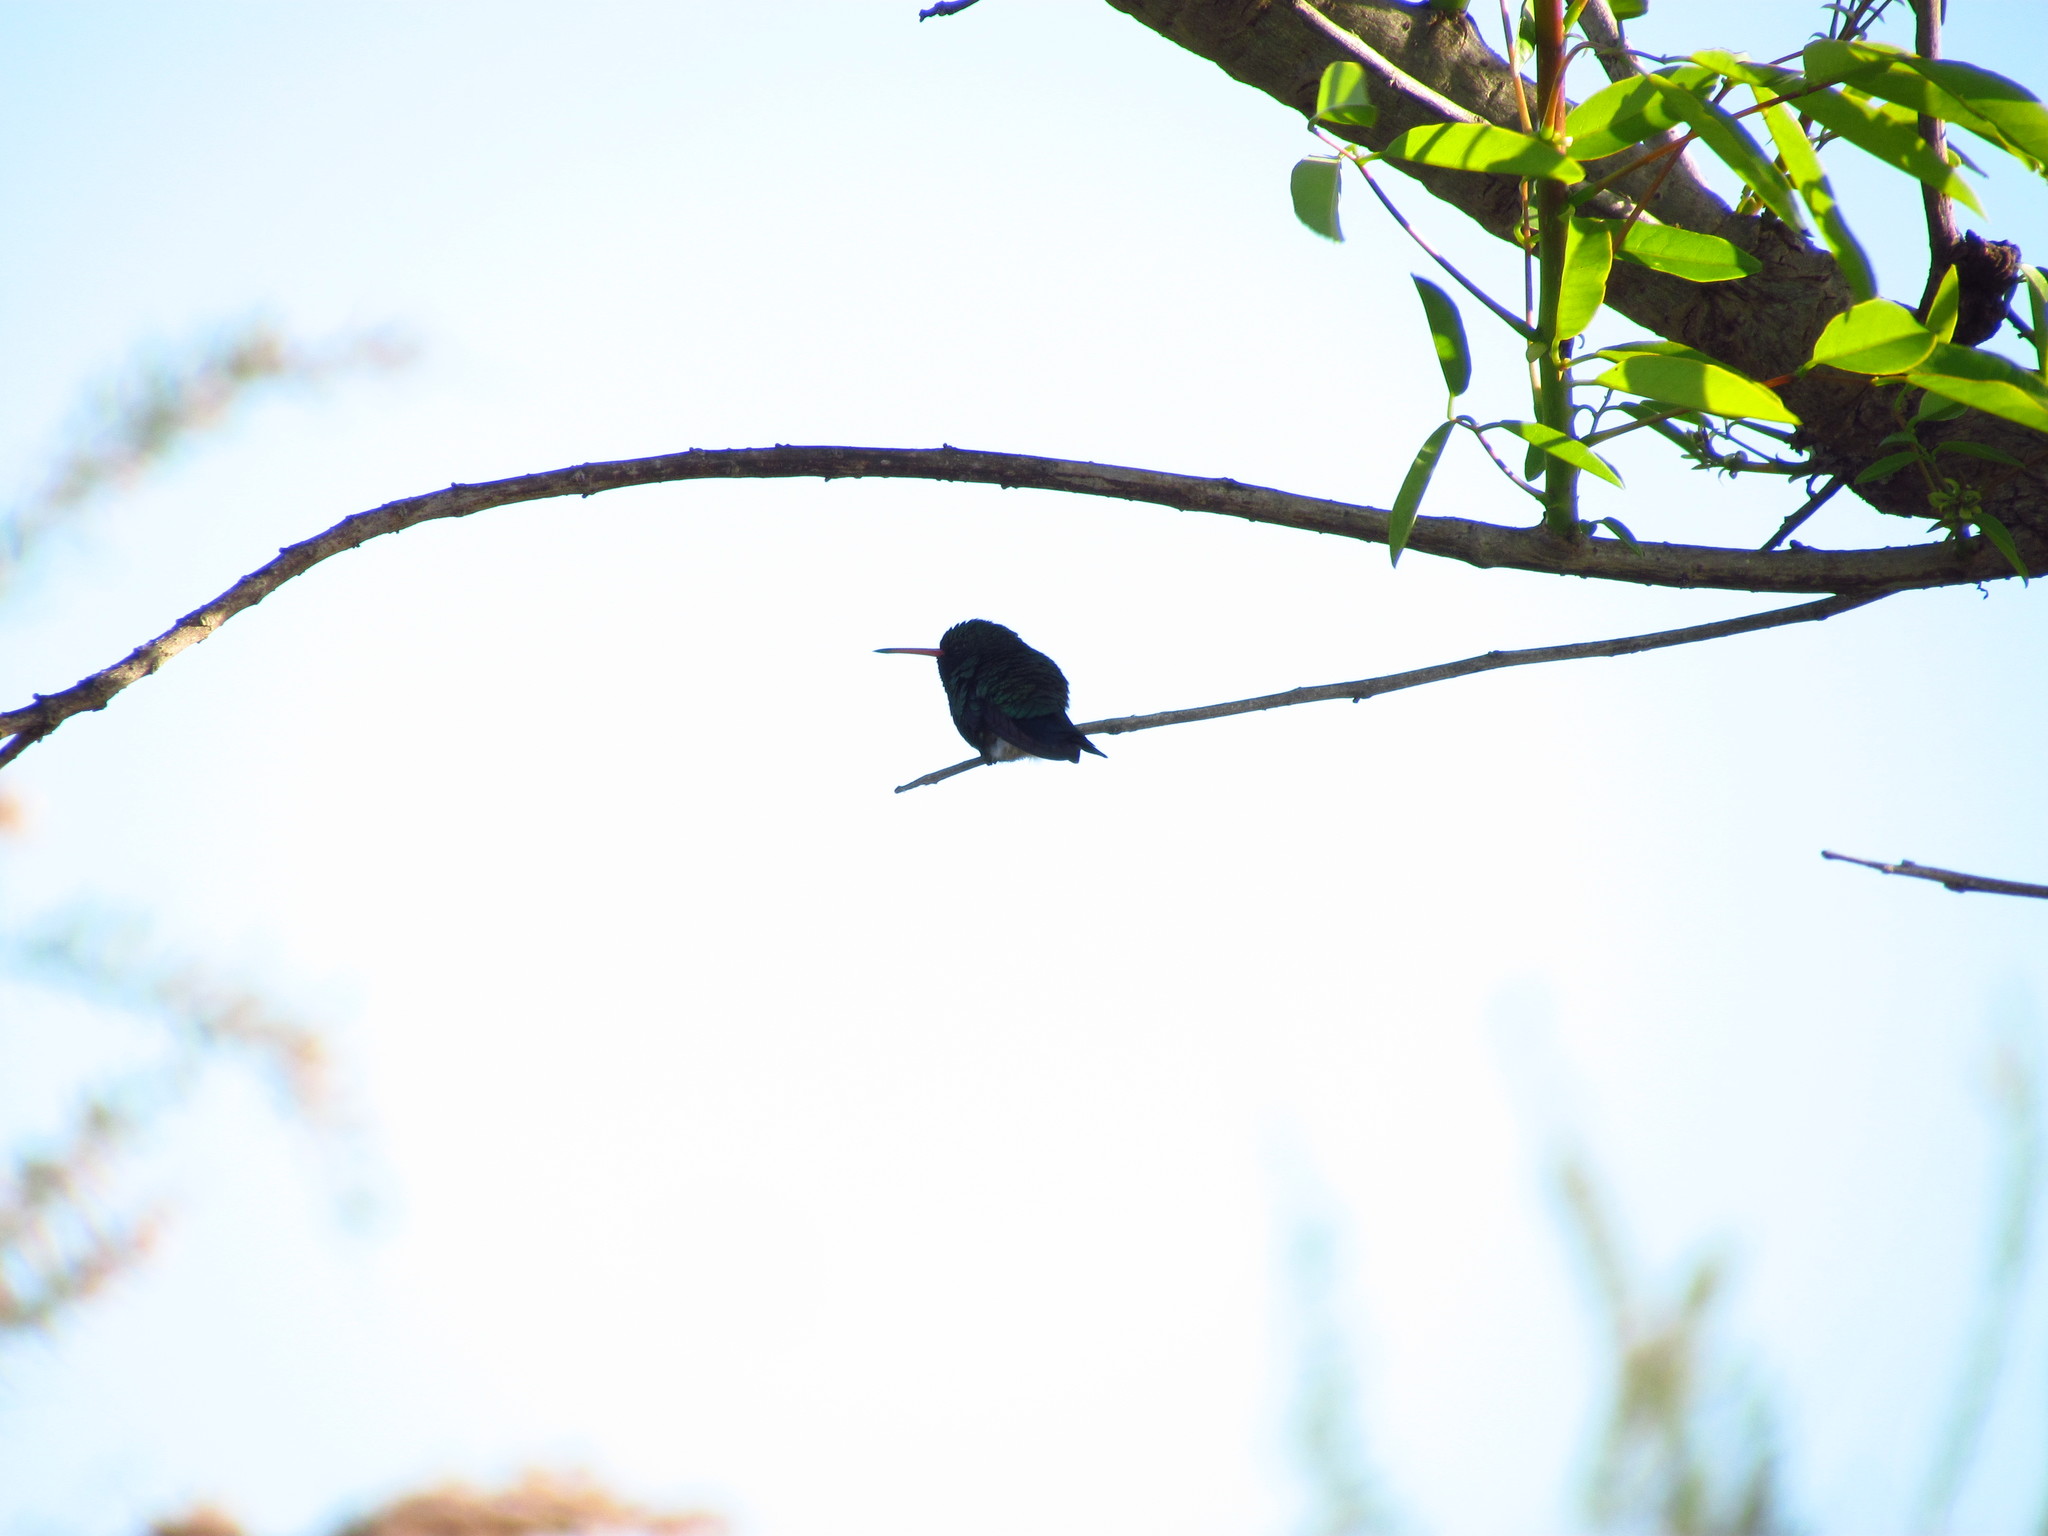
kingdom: Animalia
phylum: Chordata
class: Aves
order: Apodiformes
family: Trochilidae
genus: Chlorostilbon
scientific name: Chlorostilbon lucidus
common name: Glittering-bellied emerald
